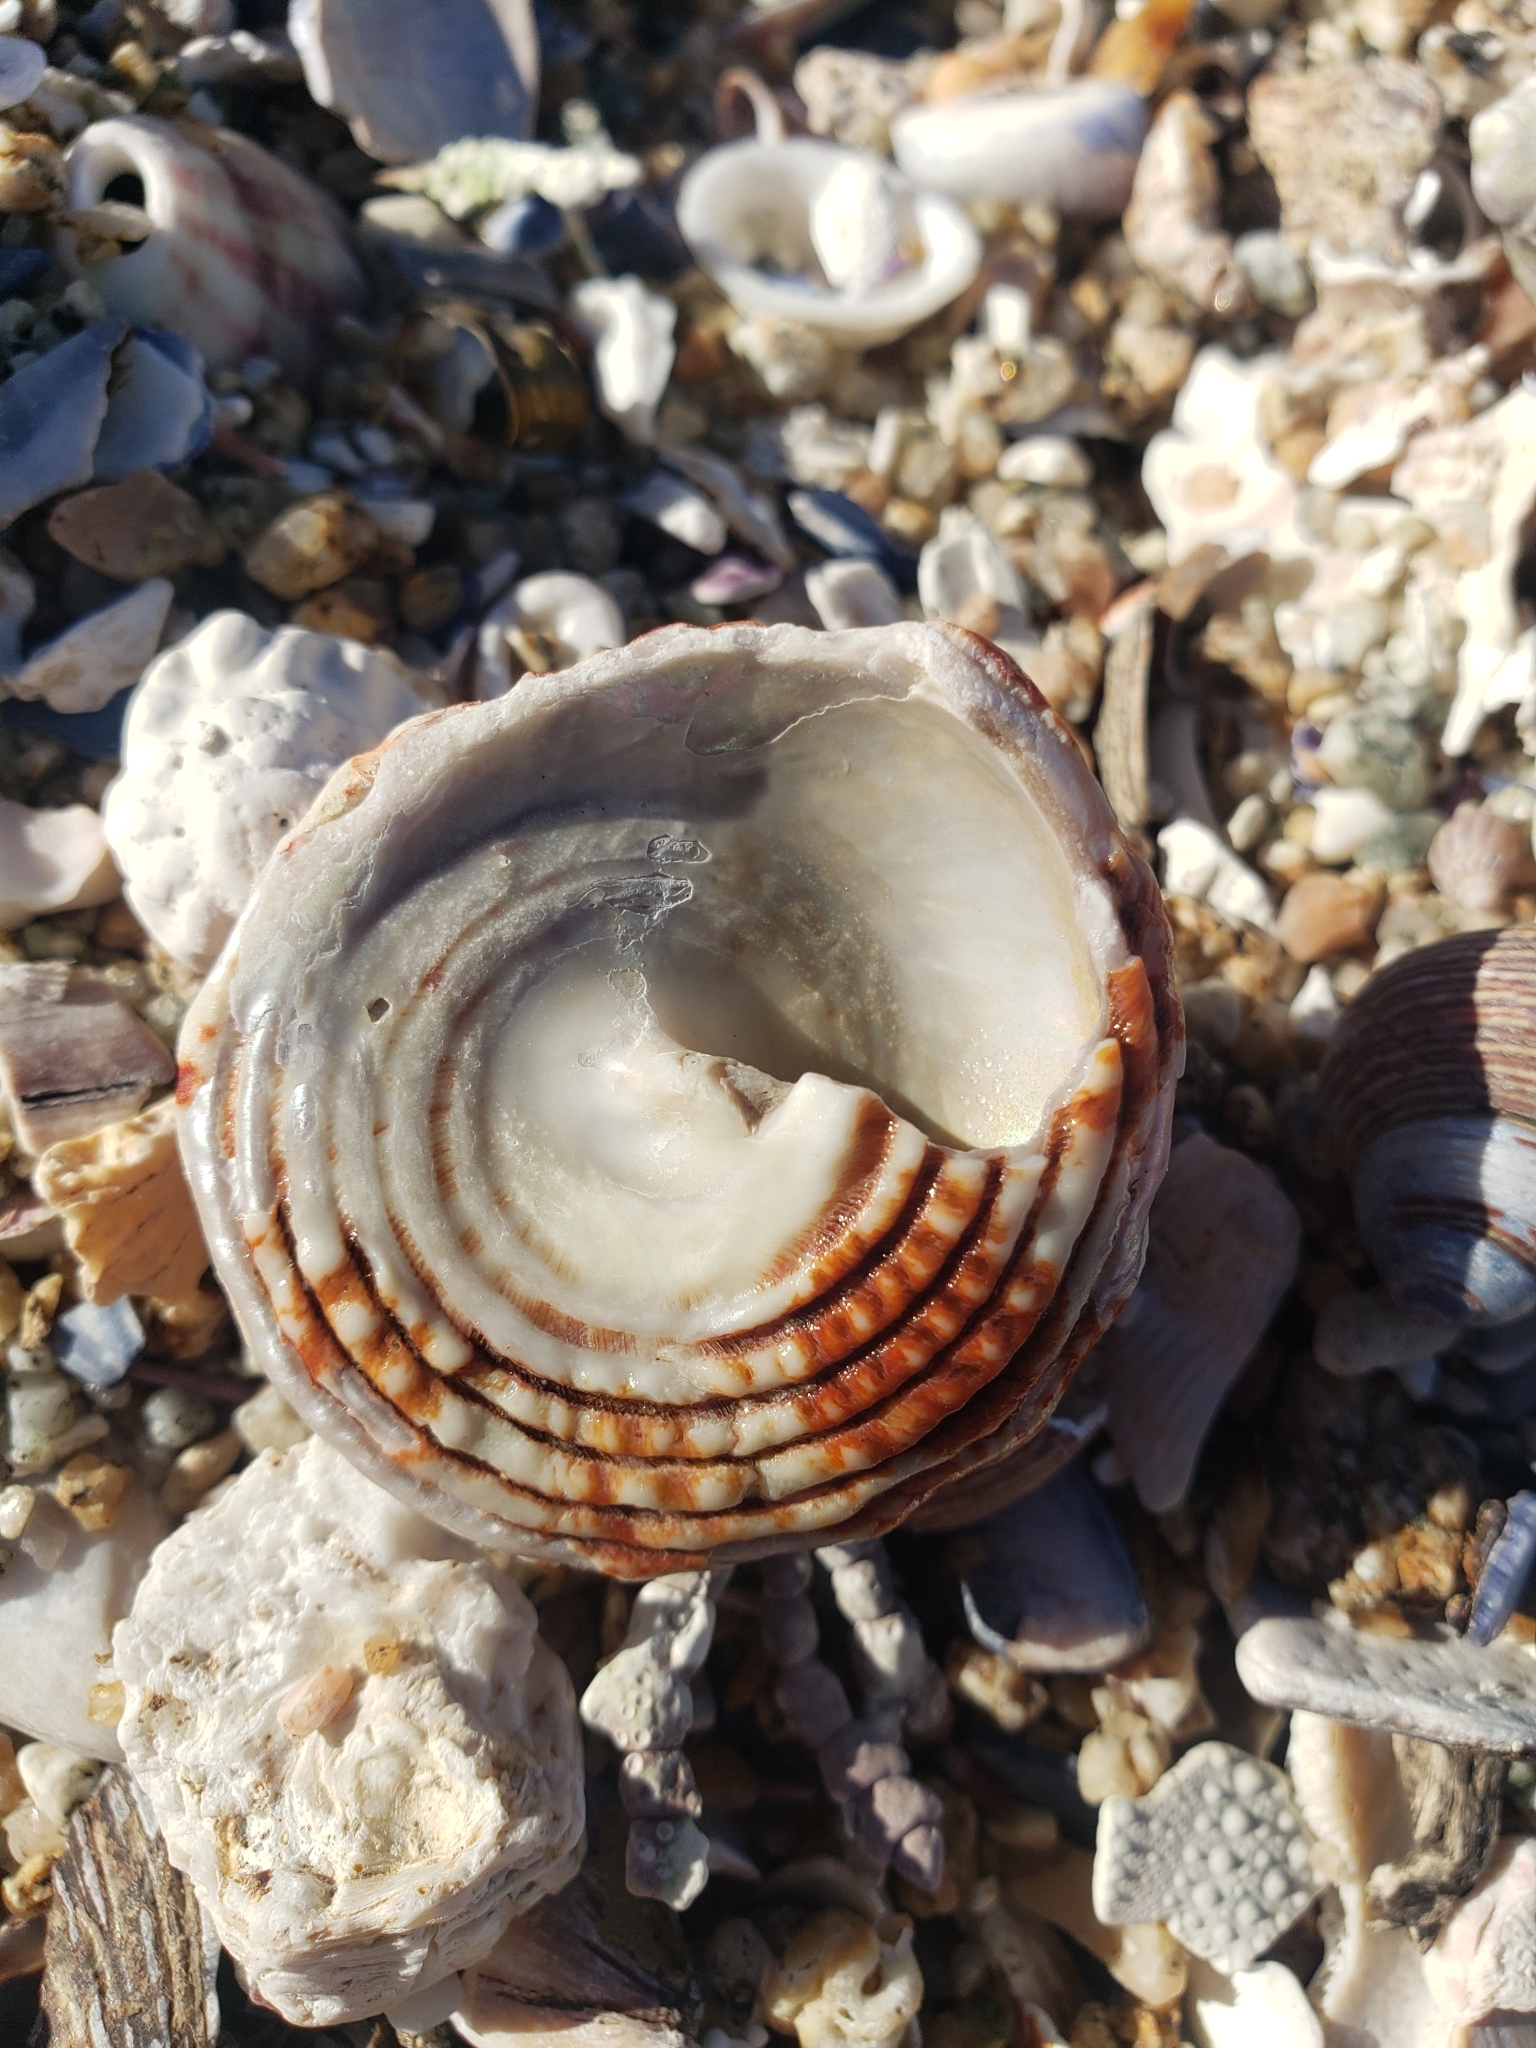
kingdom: Animalia
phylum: Mollusca
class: Gastropoda
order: Trochida
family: Turbinidae
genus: Pomaulax
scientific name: Pomaulax gibberosus
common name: Red turban
